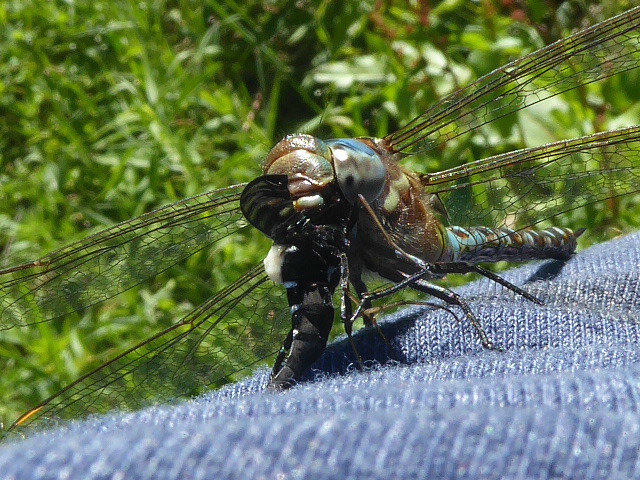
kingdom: Animalia
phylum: Arthropoda
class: Insecta
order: Odonata
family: Aeshnidae
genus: Rhionaeschna
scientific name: Rhionaeschna mutata
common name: Spatterdock darner
